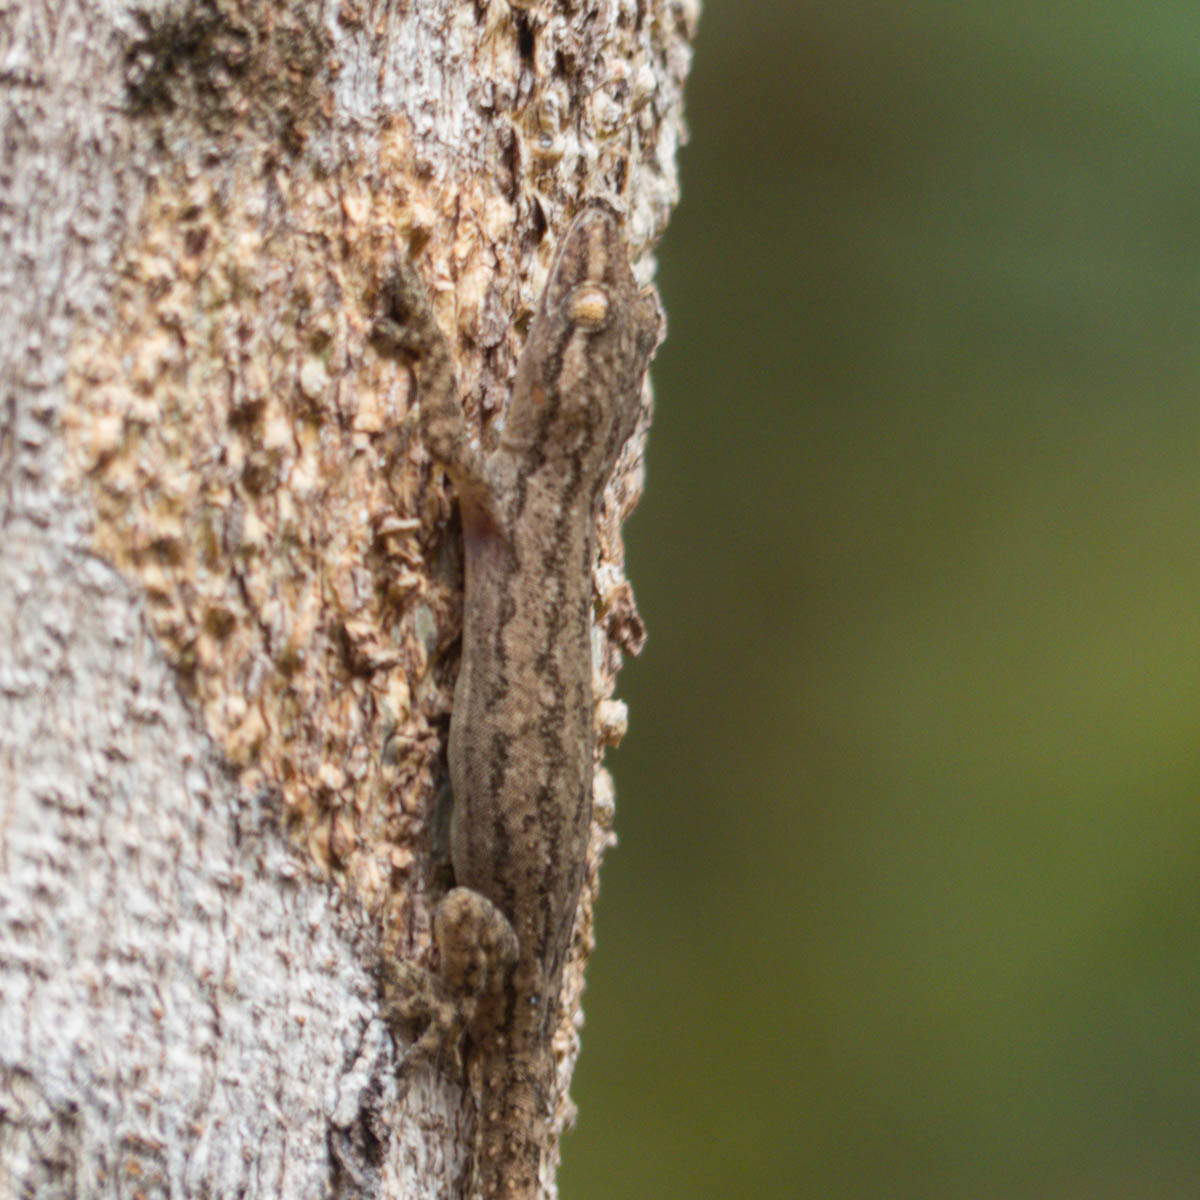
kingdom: Animalia
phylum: Chordata
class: Squamata
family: Gekkonidae
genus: Hemidactylus
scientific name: Hemidactylus frenatus
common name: Common house gecko
